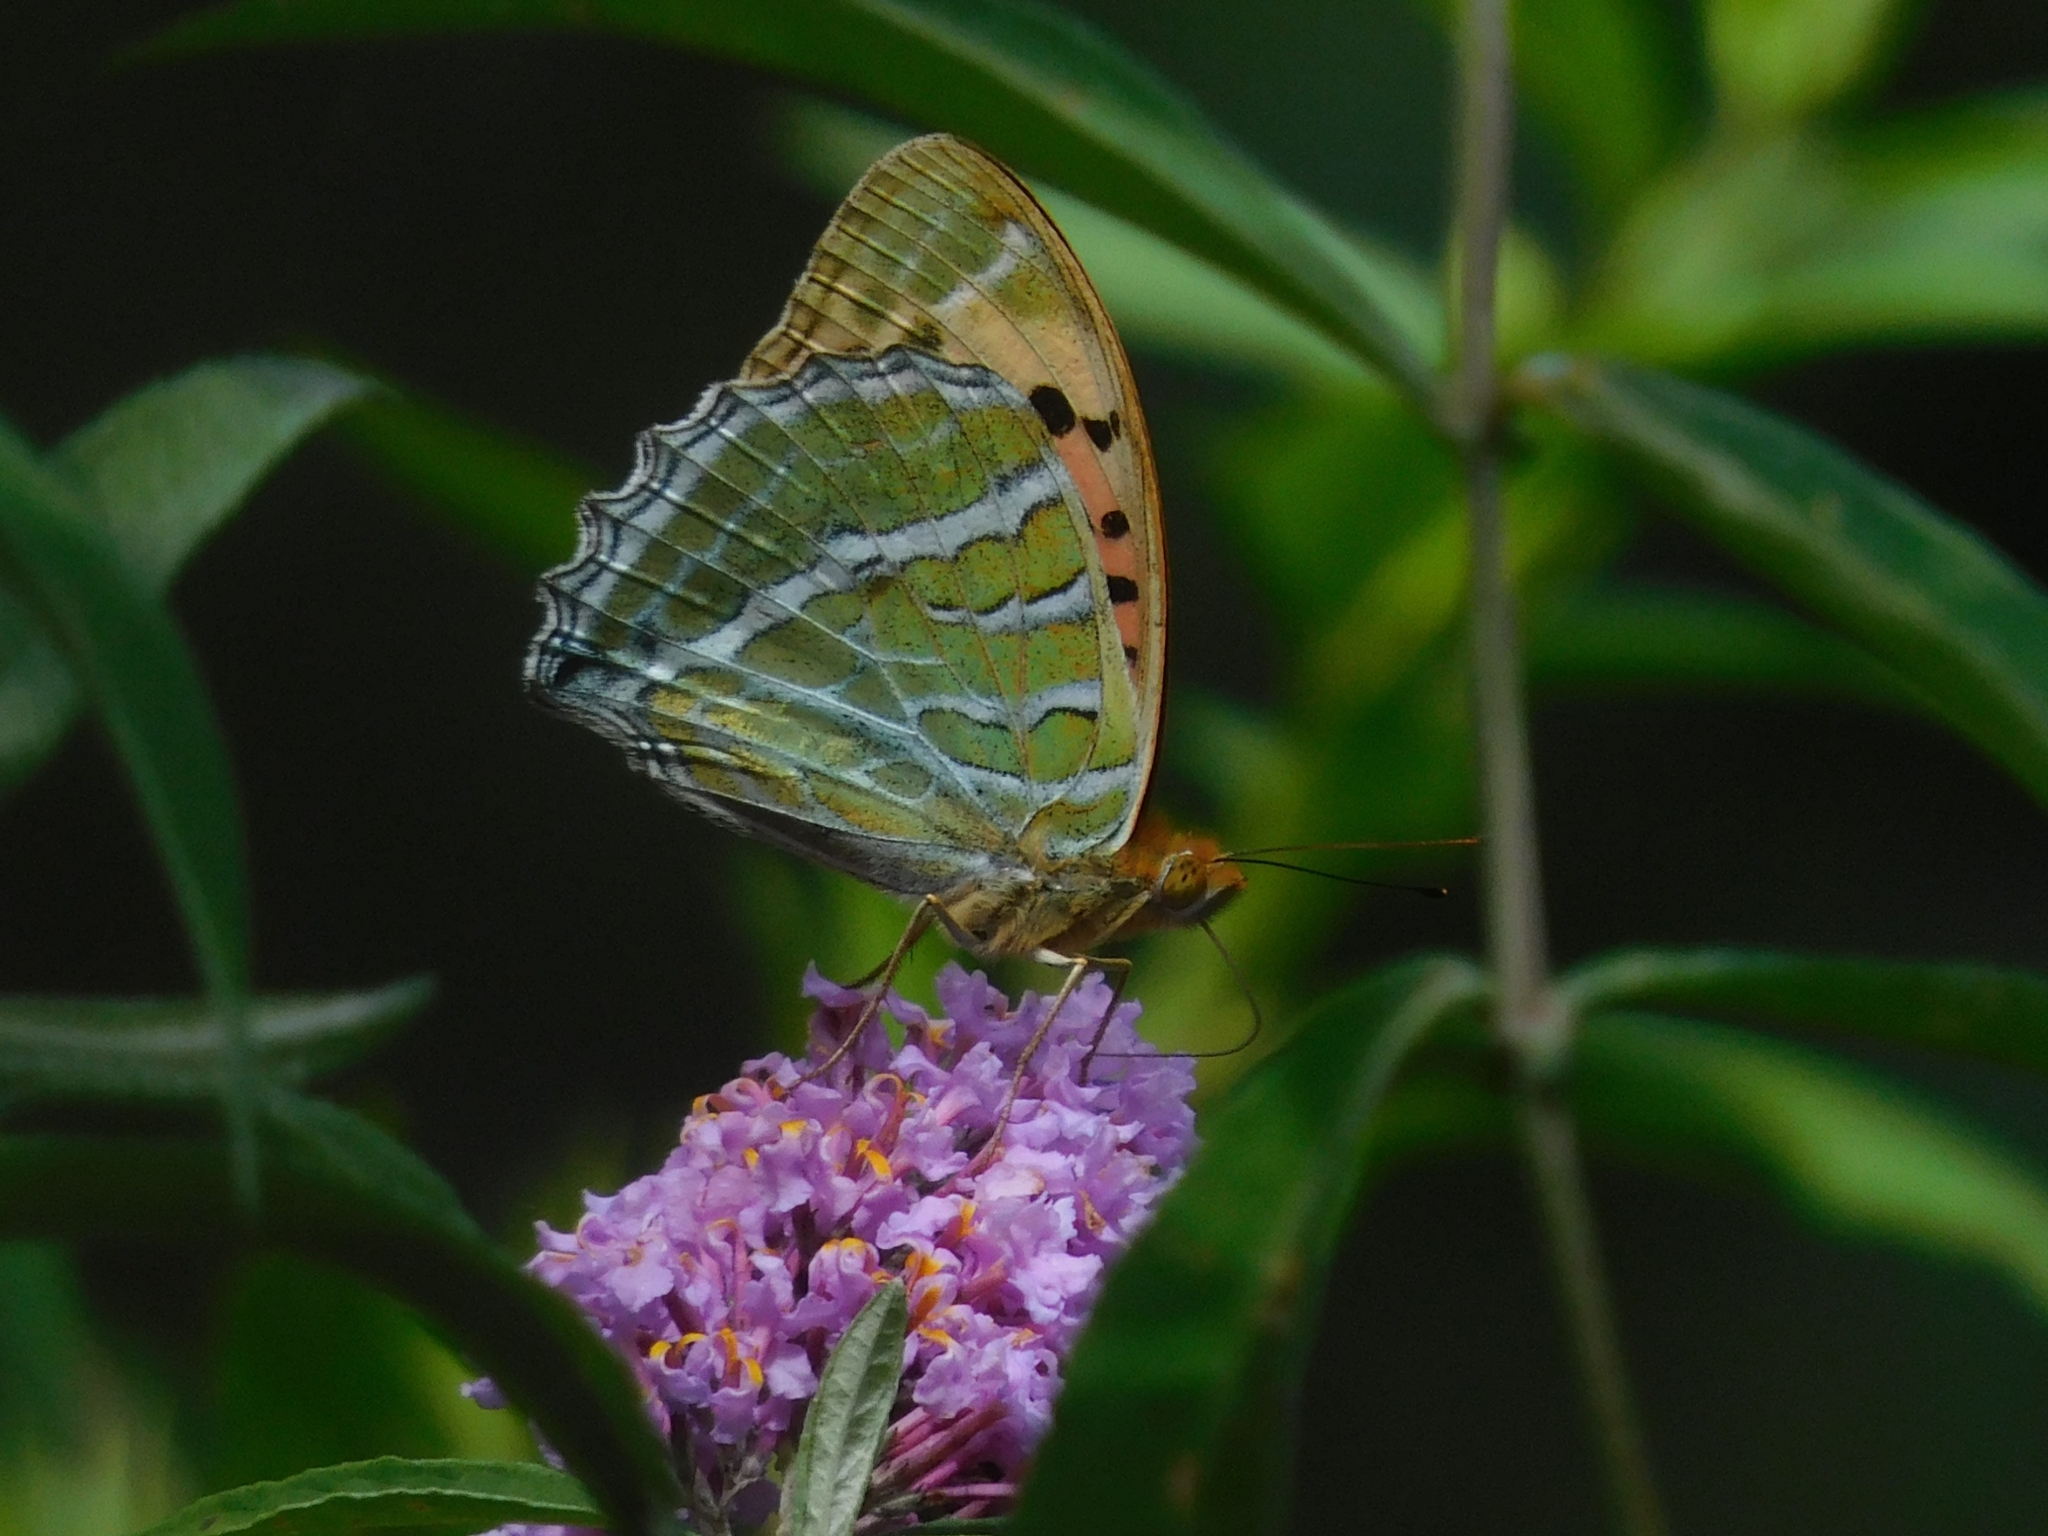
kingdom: Animalia
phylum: Arthropoda
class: Insecta
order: Lepidoptera
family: Nymphalidae
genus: Childrena
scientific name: Childrena childreni
